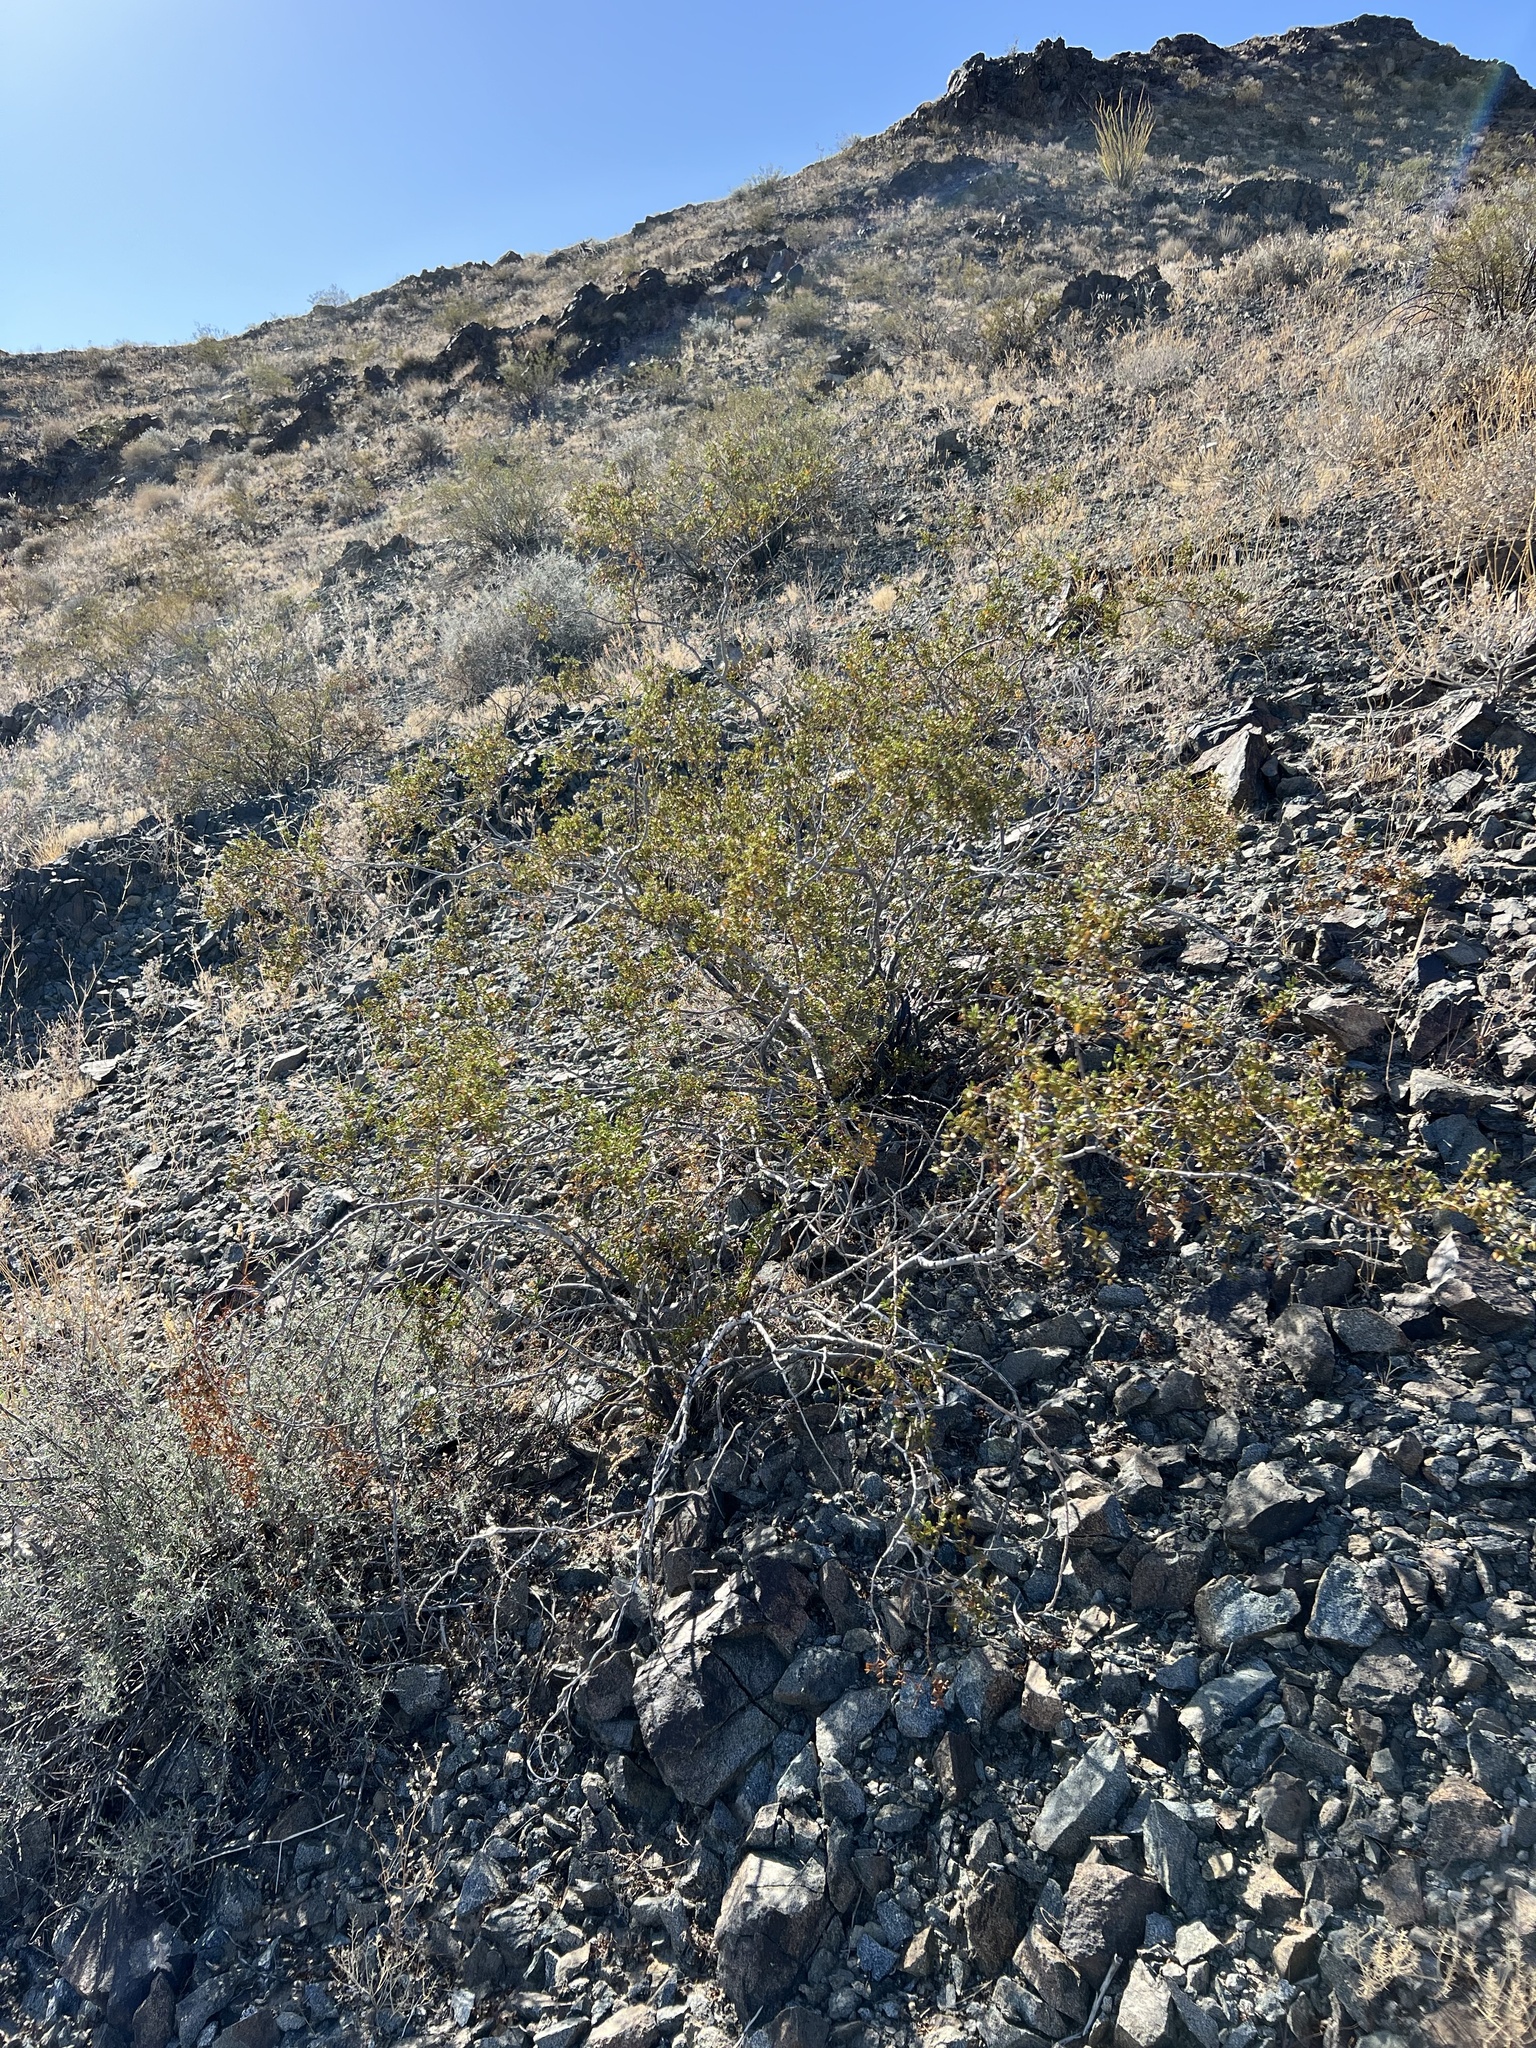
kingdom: Plantae
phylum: Tracheophyta
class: Magnoliopsida
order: Zygophyllales
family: Zygophyllaceae
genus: Larrea
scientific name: Larrea tridentata
